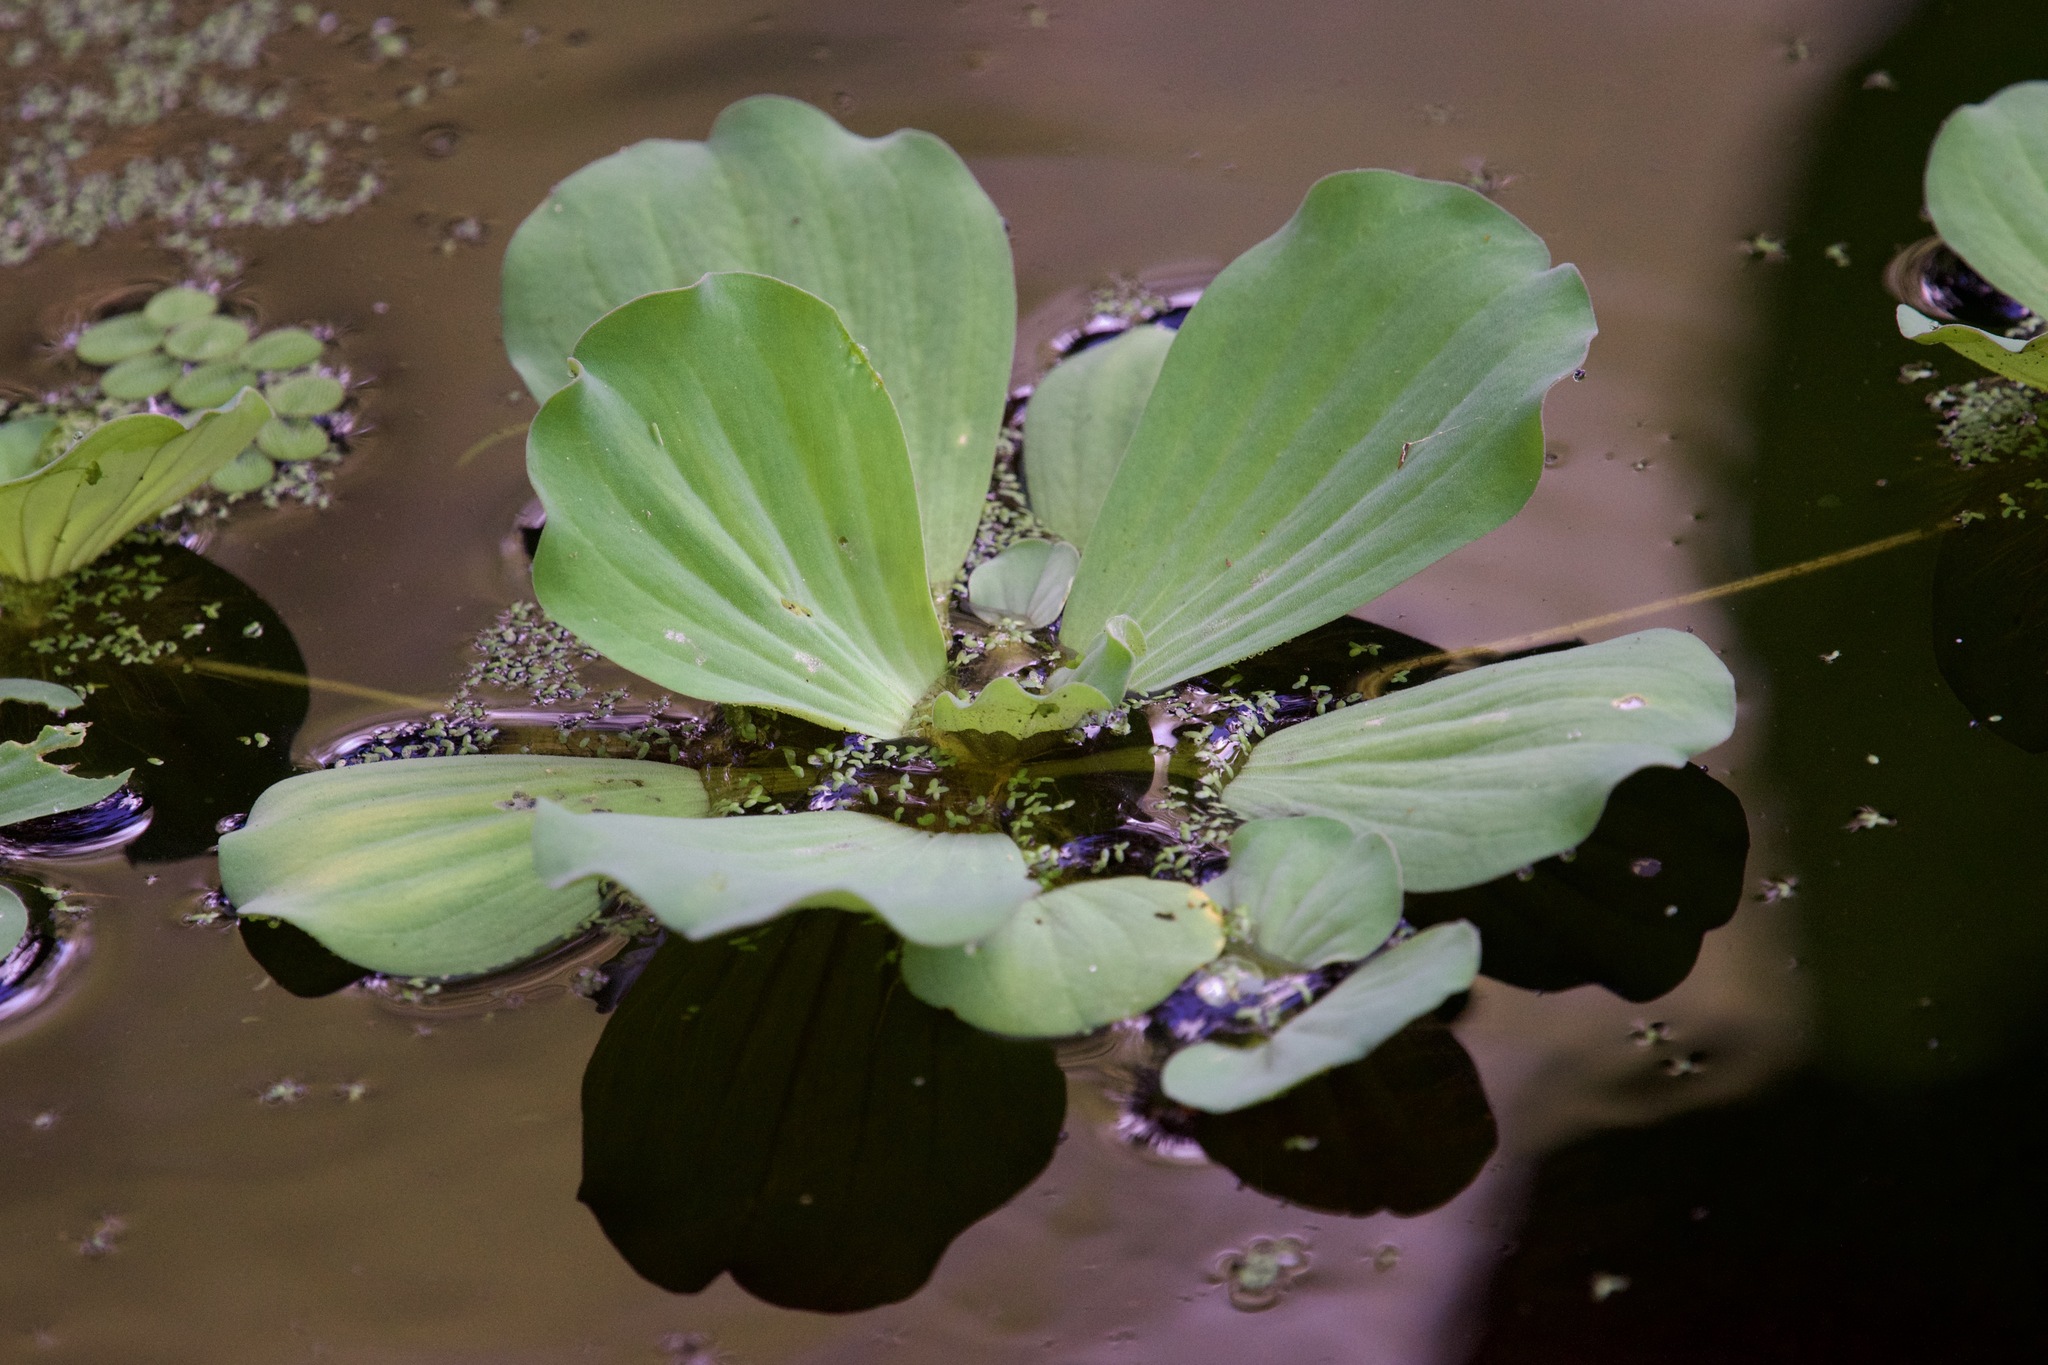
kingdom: Plantae
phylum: Tracheophyta
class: Liliopsida
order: Alismatales
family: Araceae
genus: Pistia
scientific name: Pistia stratiotes
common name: Water lettuce
